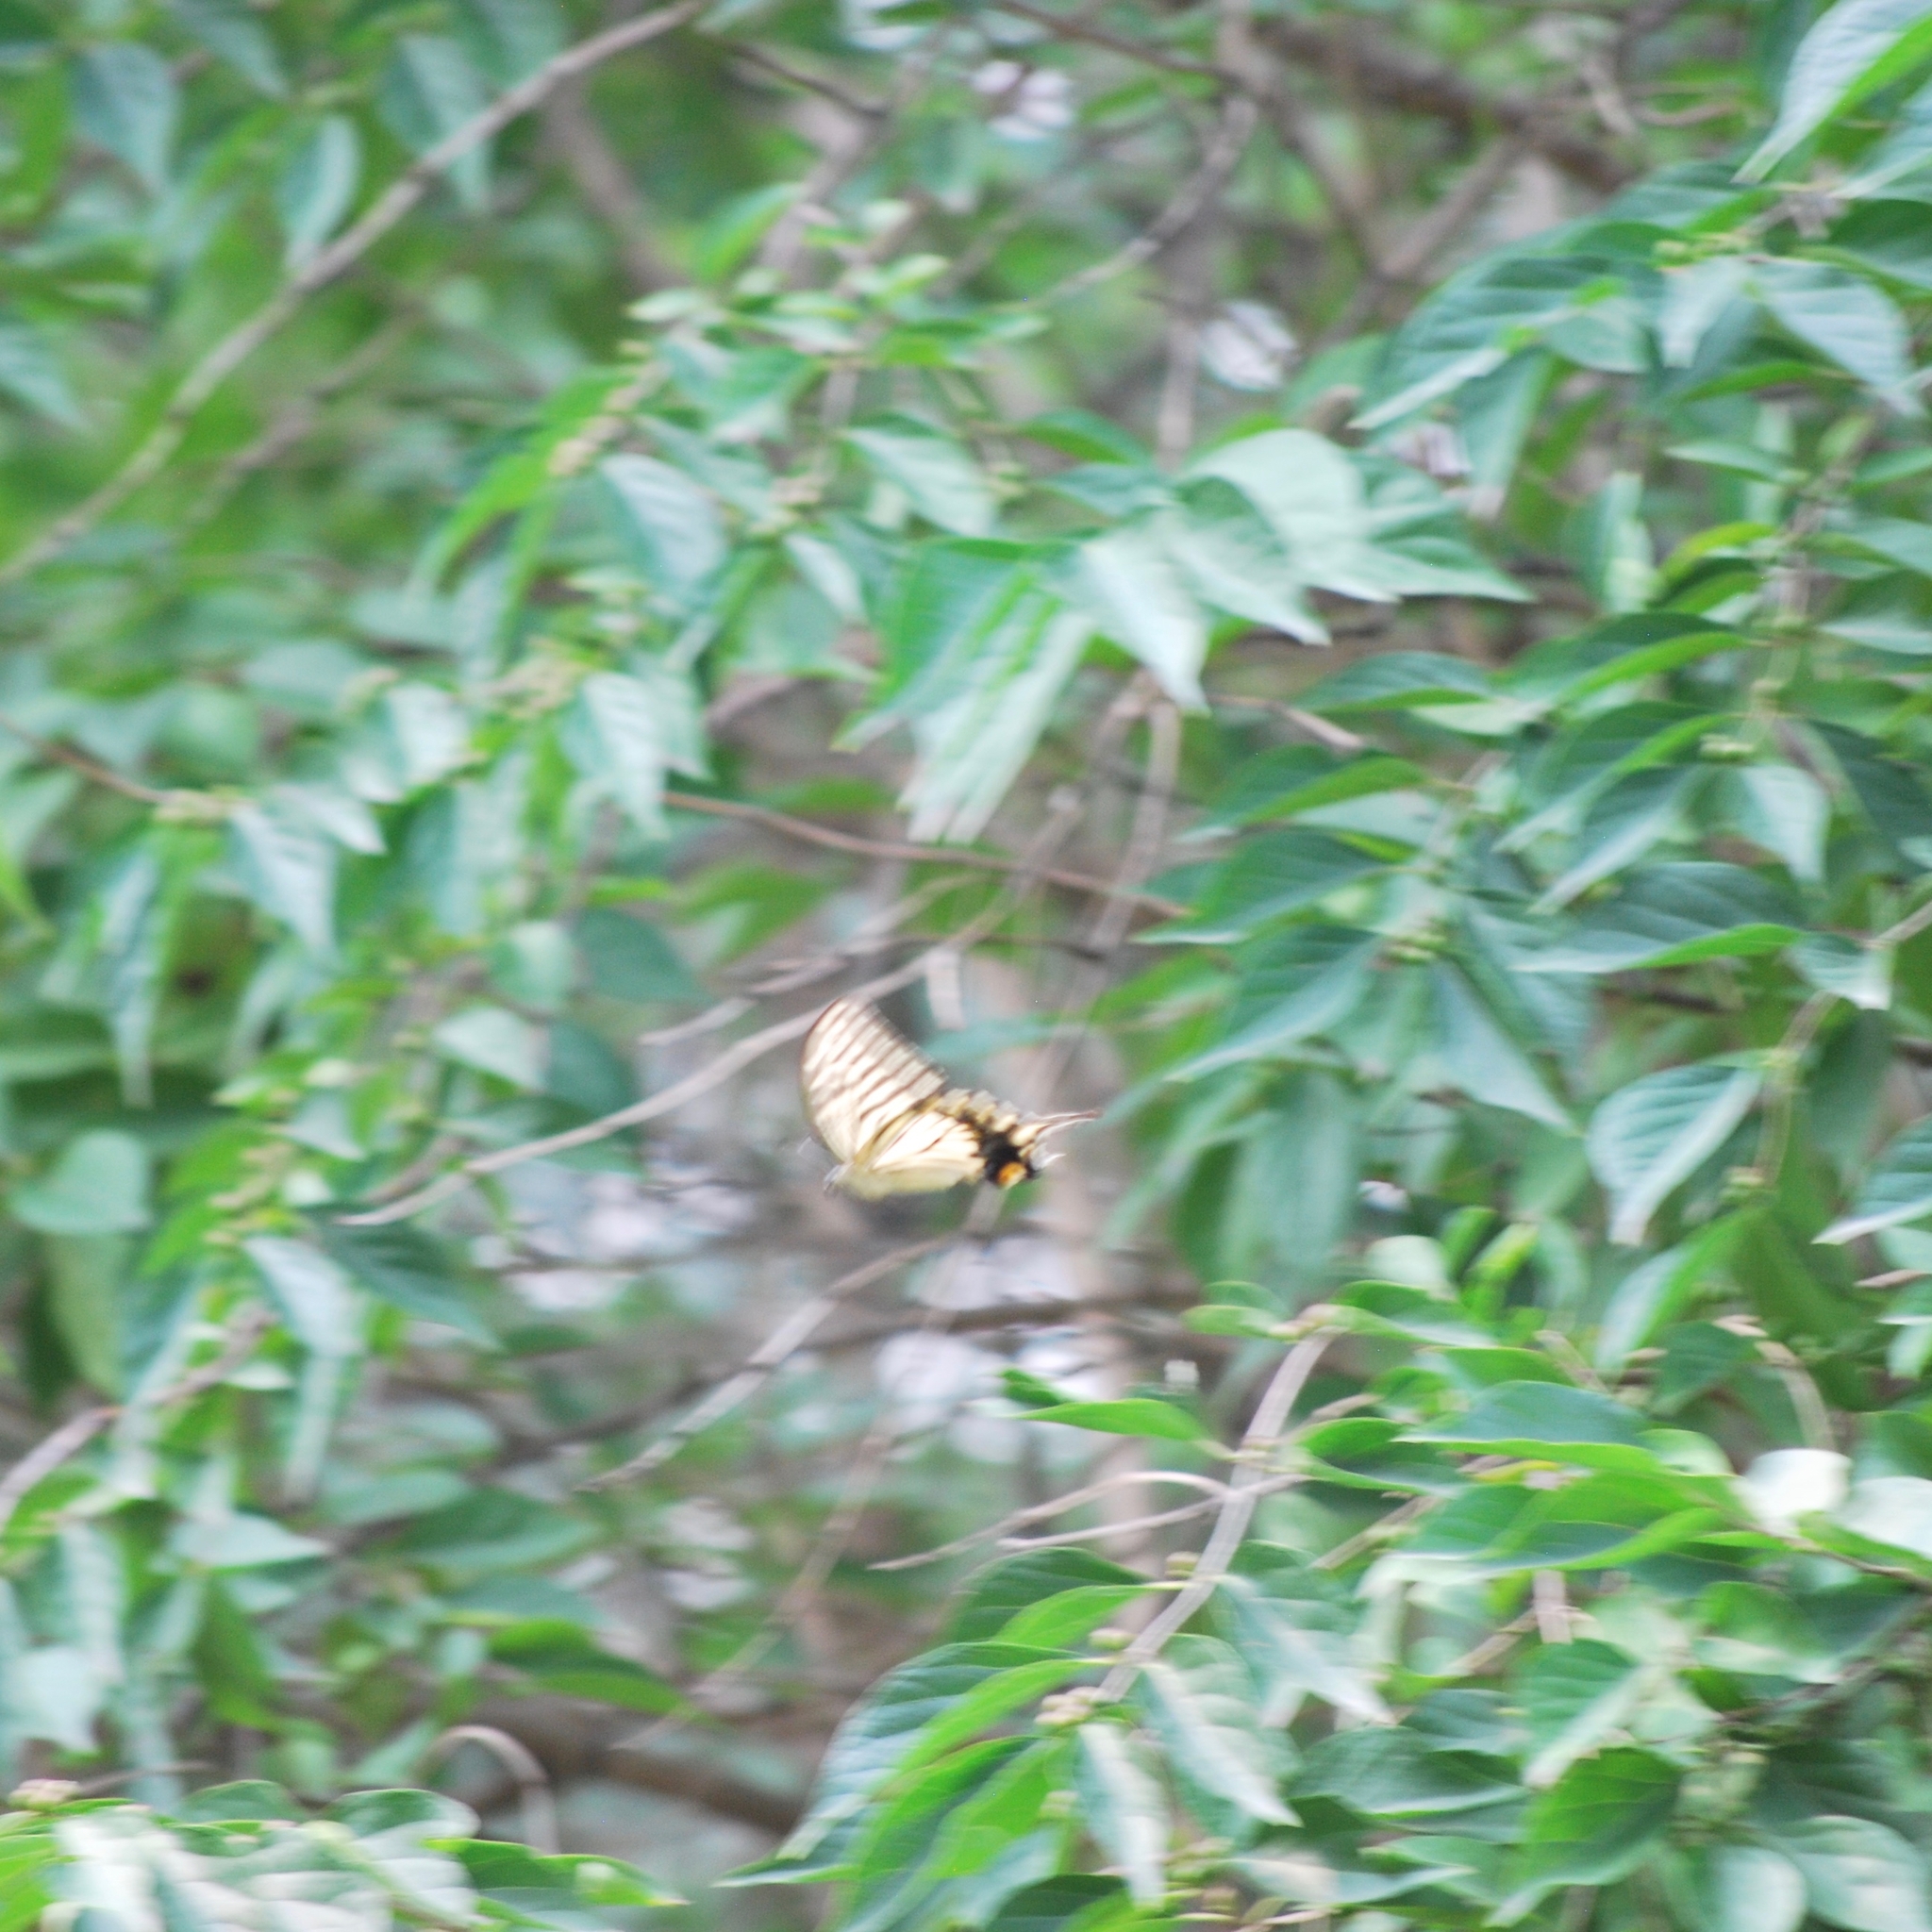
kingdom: Animalia
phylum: Arthropoda
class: Insecta
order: Lepidoptera
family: Papilionidae
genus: Papilio
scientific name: Papilio xuthus
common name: Asian swallowtail
